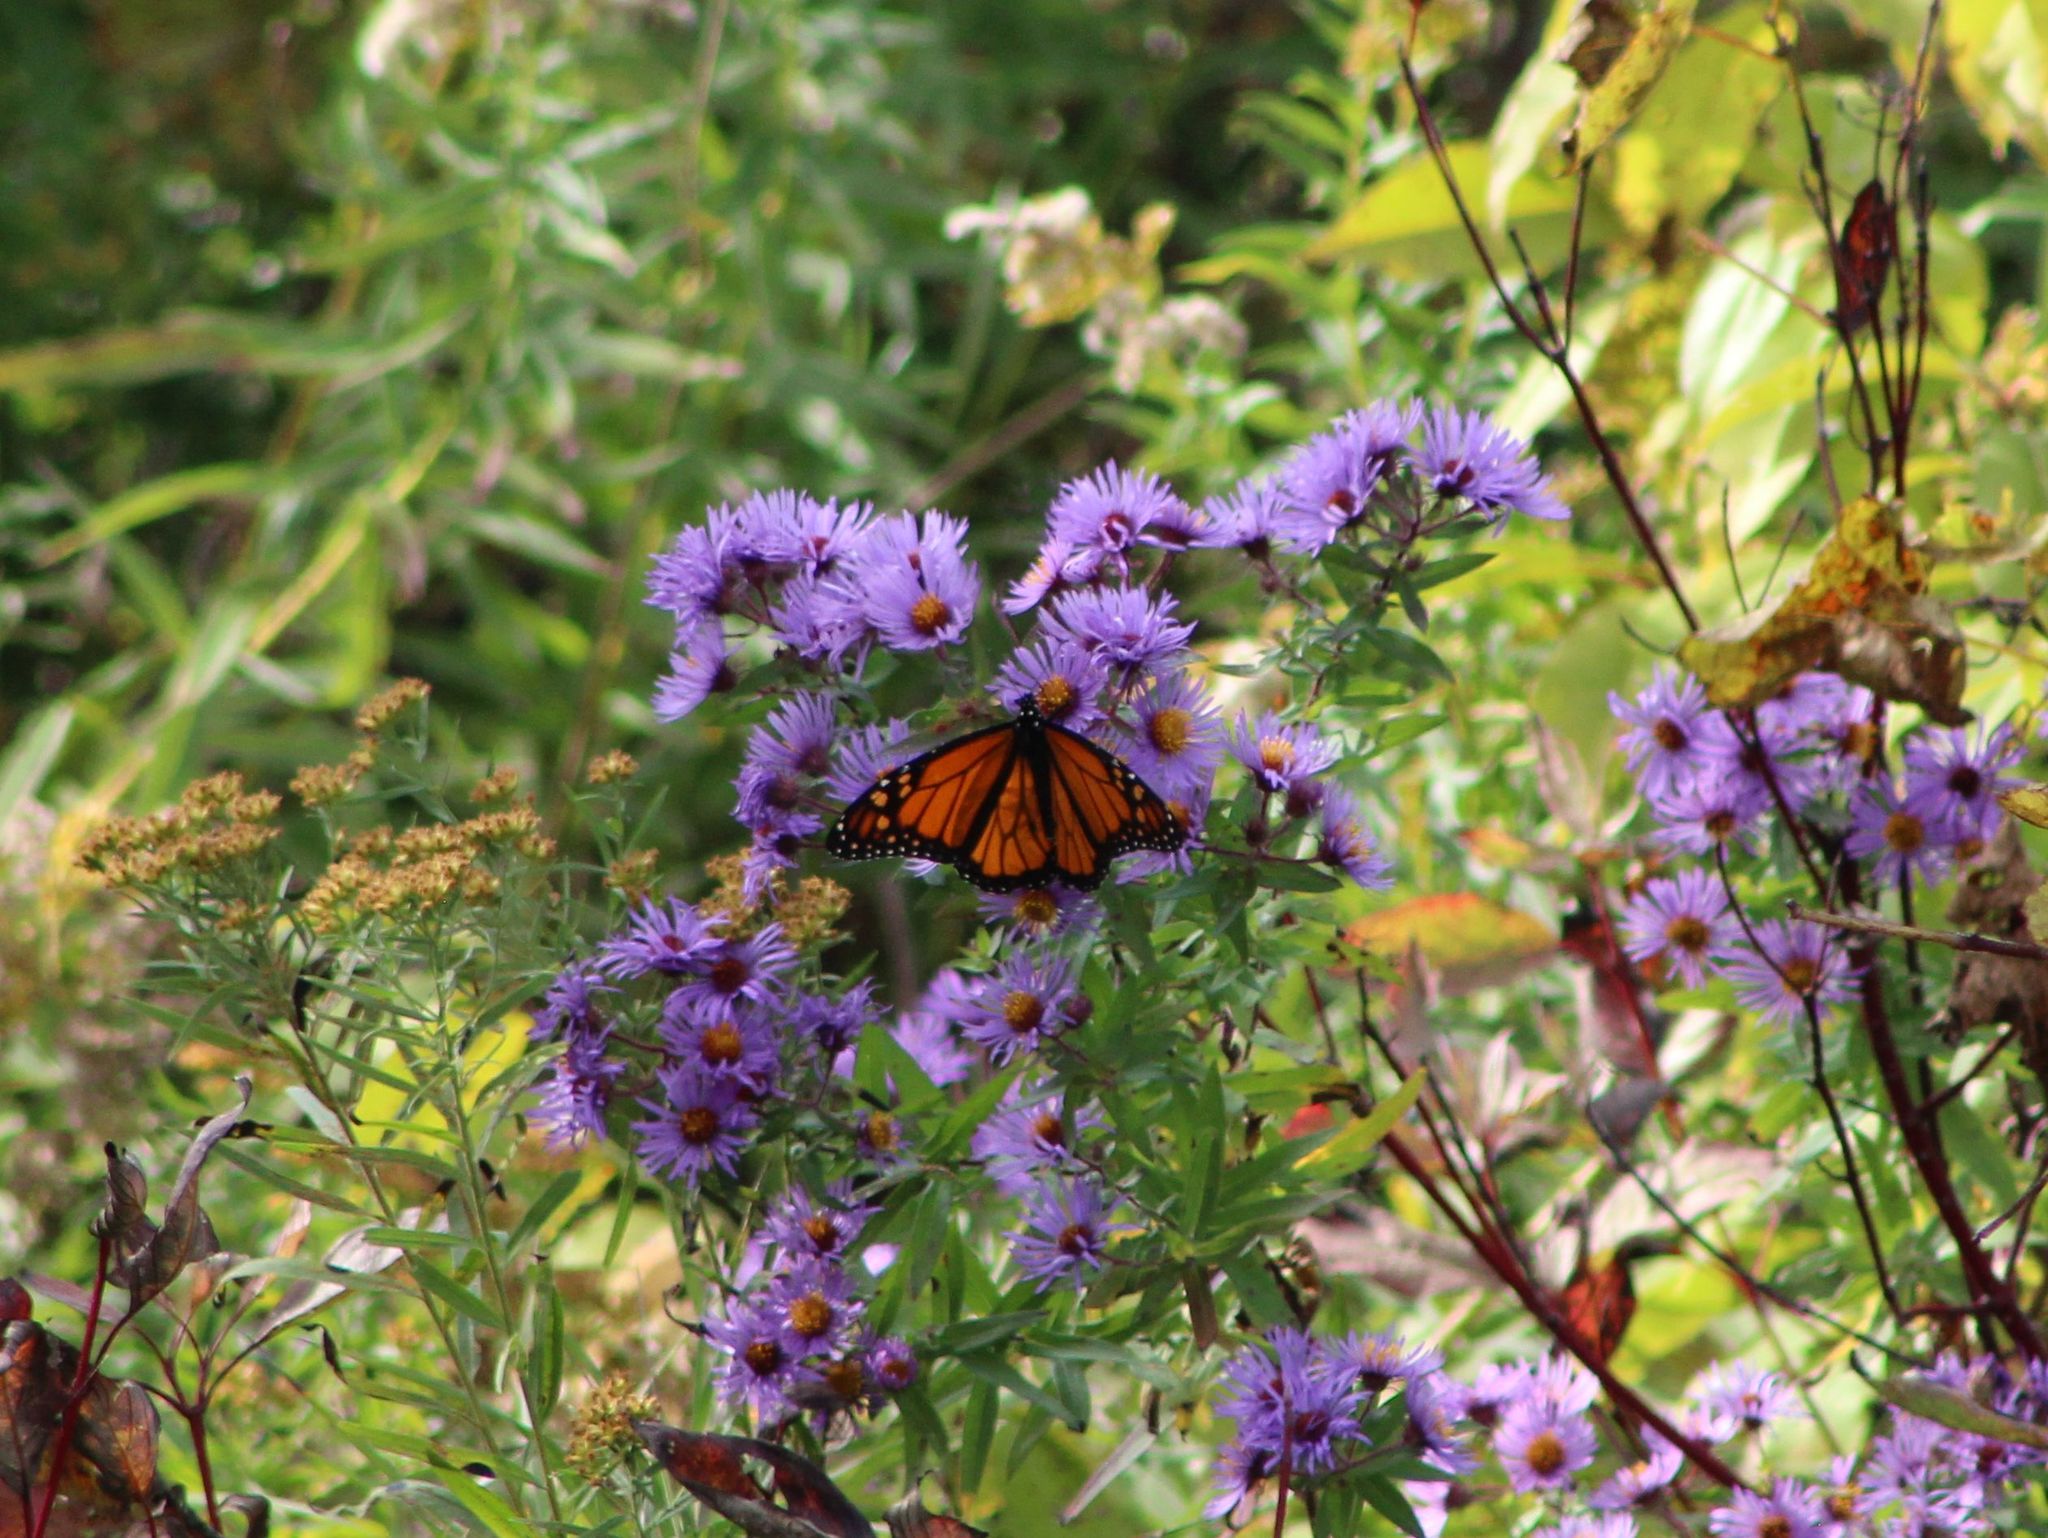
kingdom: Animalia
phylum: Arthropoda
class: Insecta
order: Lepidoptera
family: Nymphalidae
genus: Danaus
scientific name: Danaus plexippus
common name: Monarch
